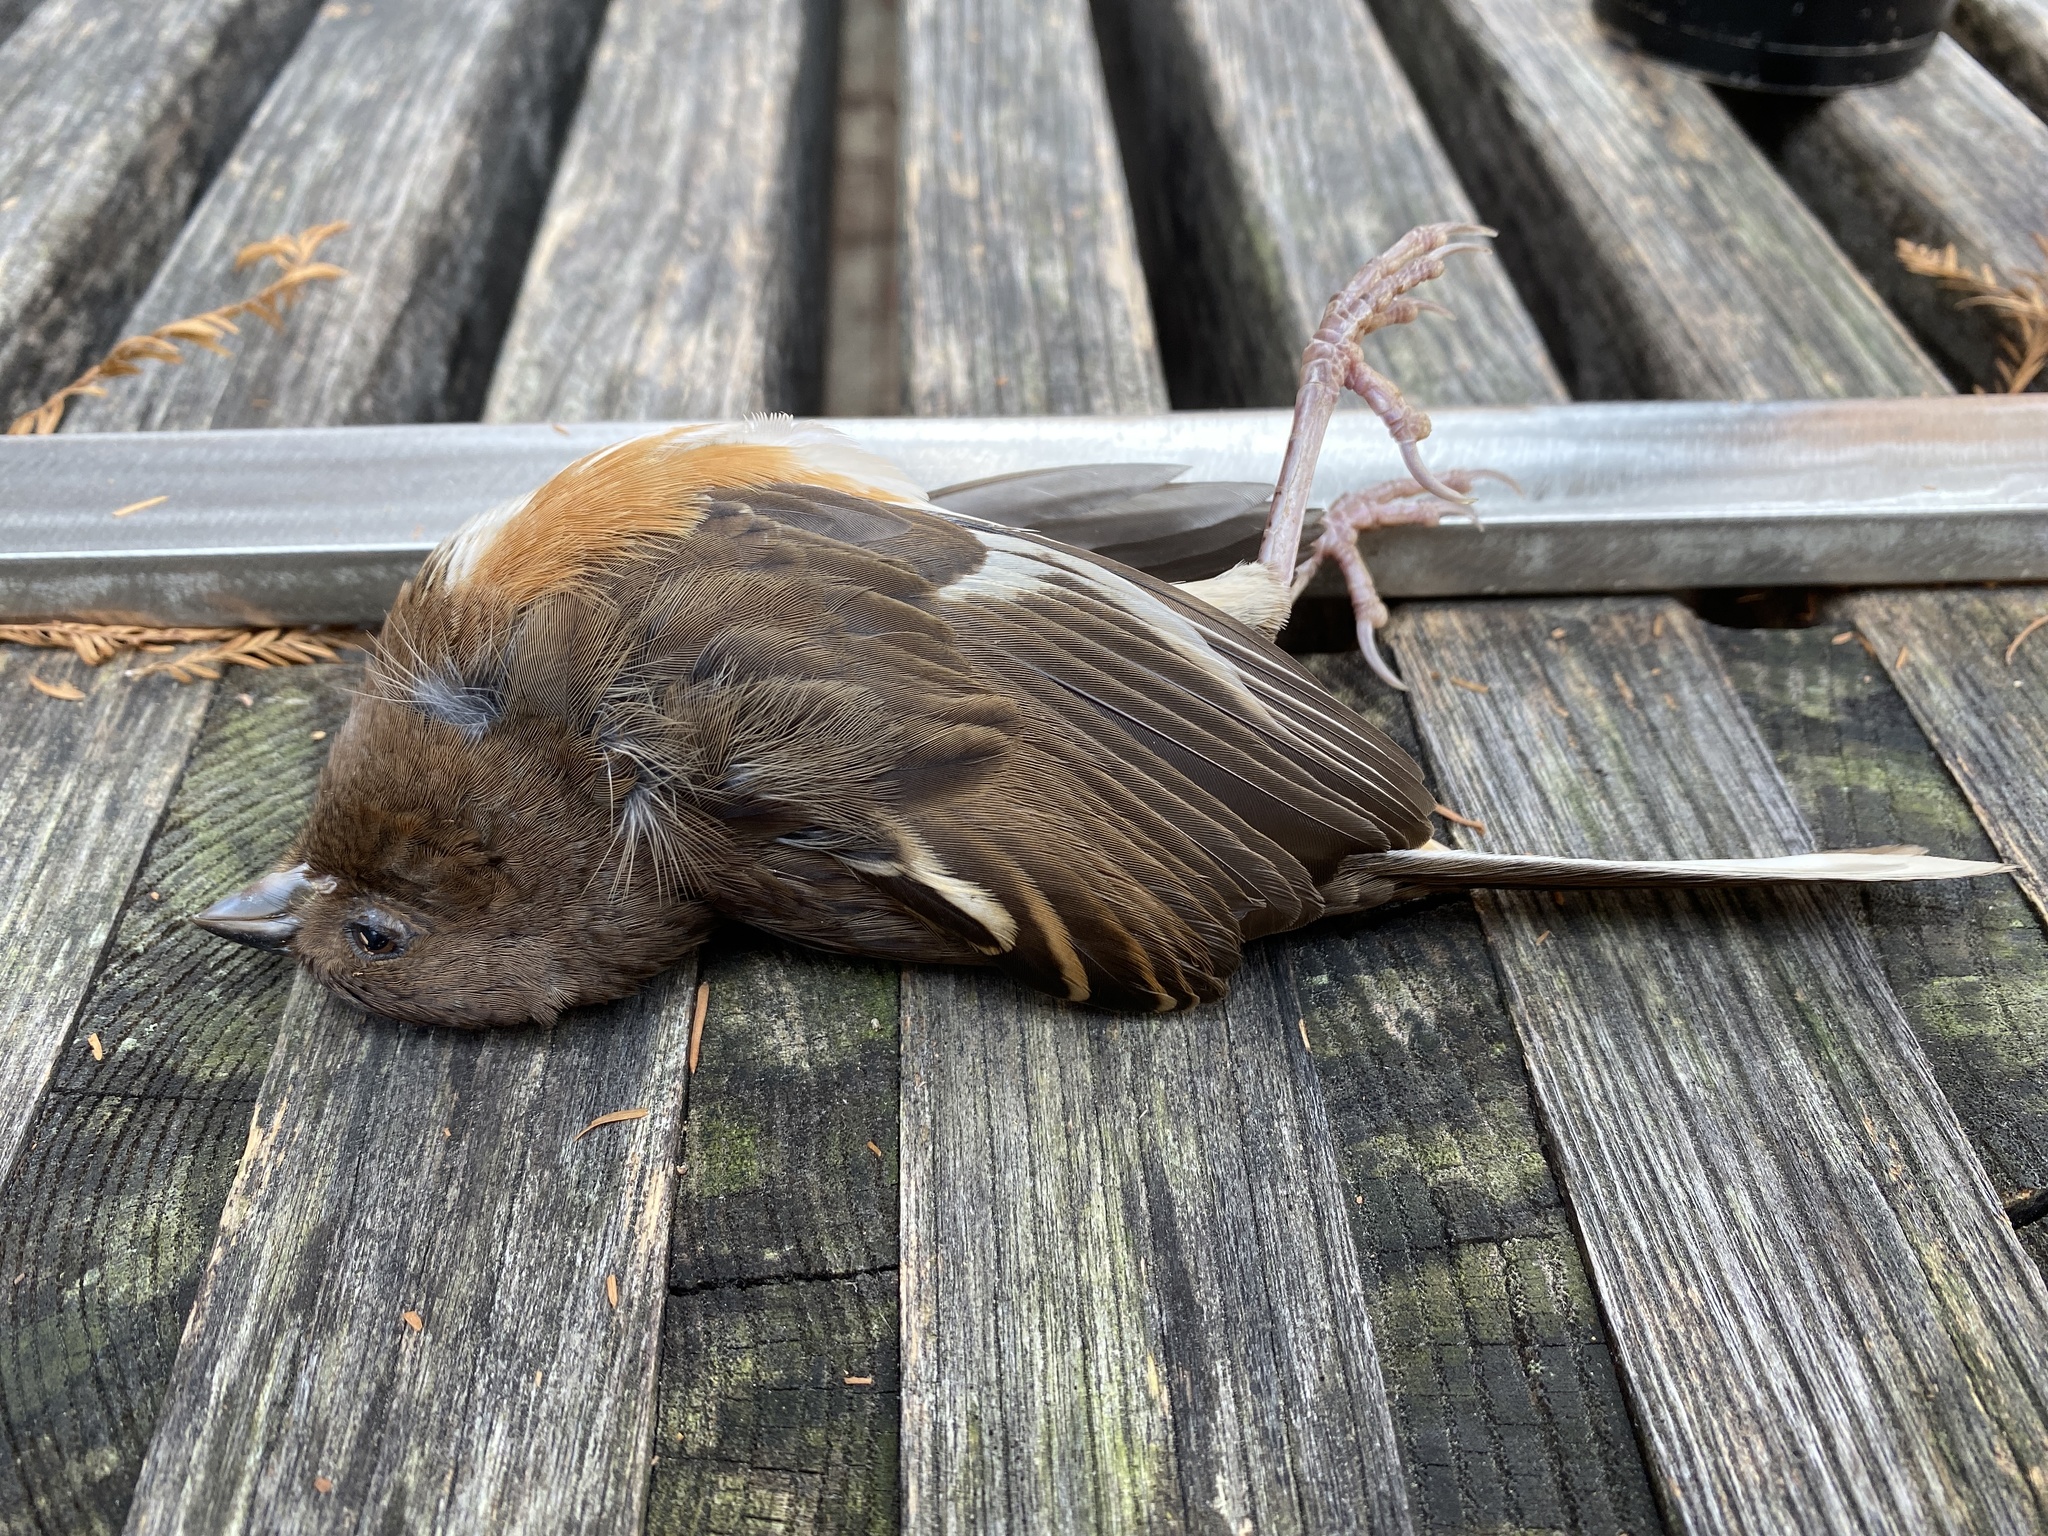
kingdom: Animalia
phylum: Chordata
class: Aves
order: Passeriformes
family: Passerellidae
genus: Pipilo
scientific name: Pipilo erythrophthalmus
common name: Eastern towhee
